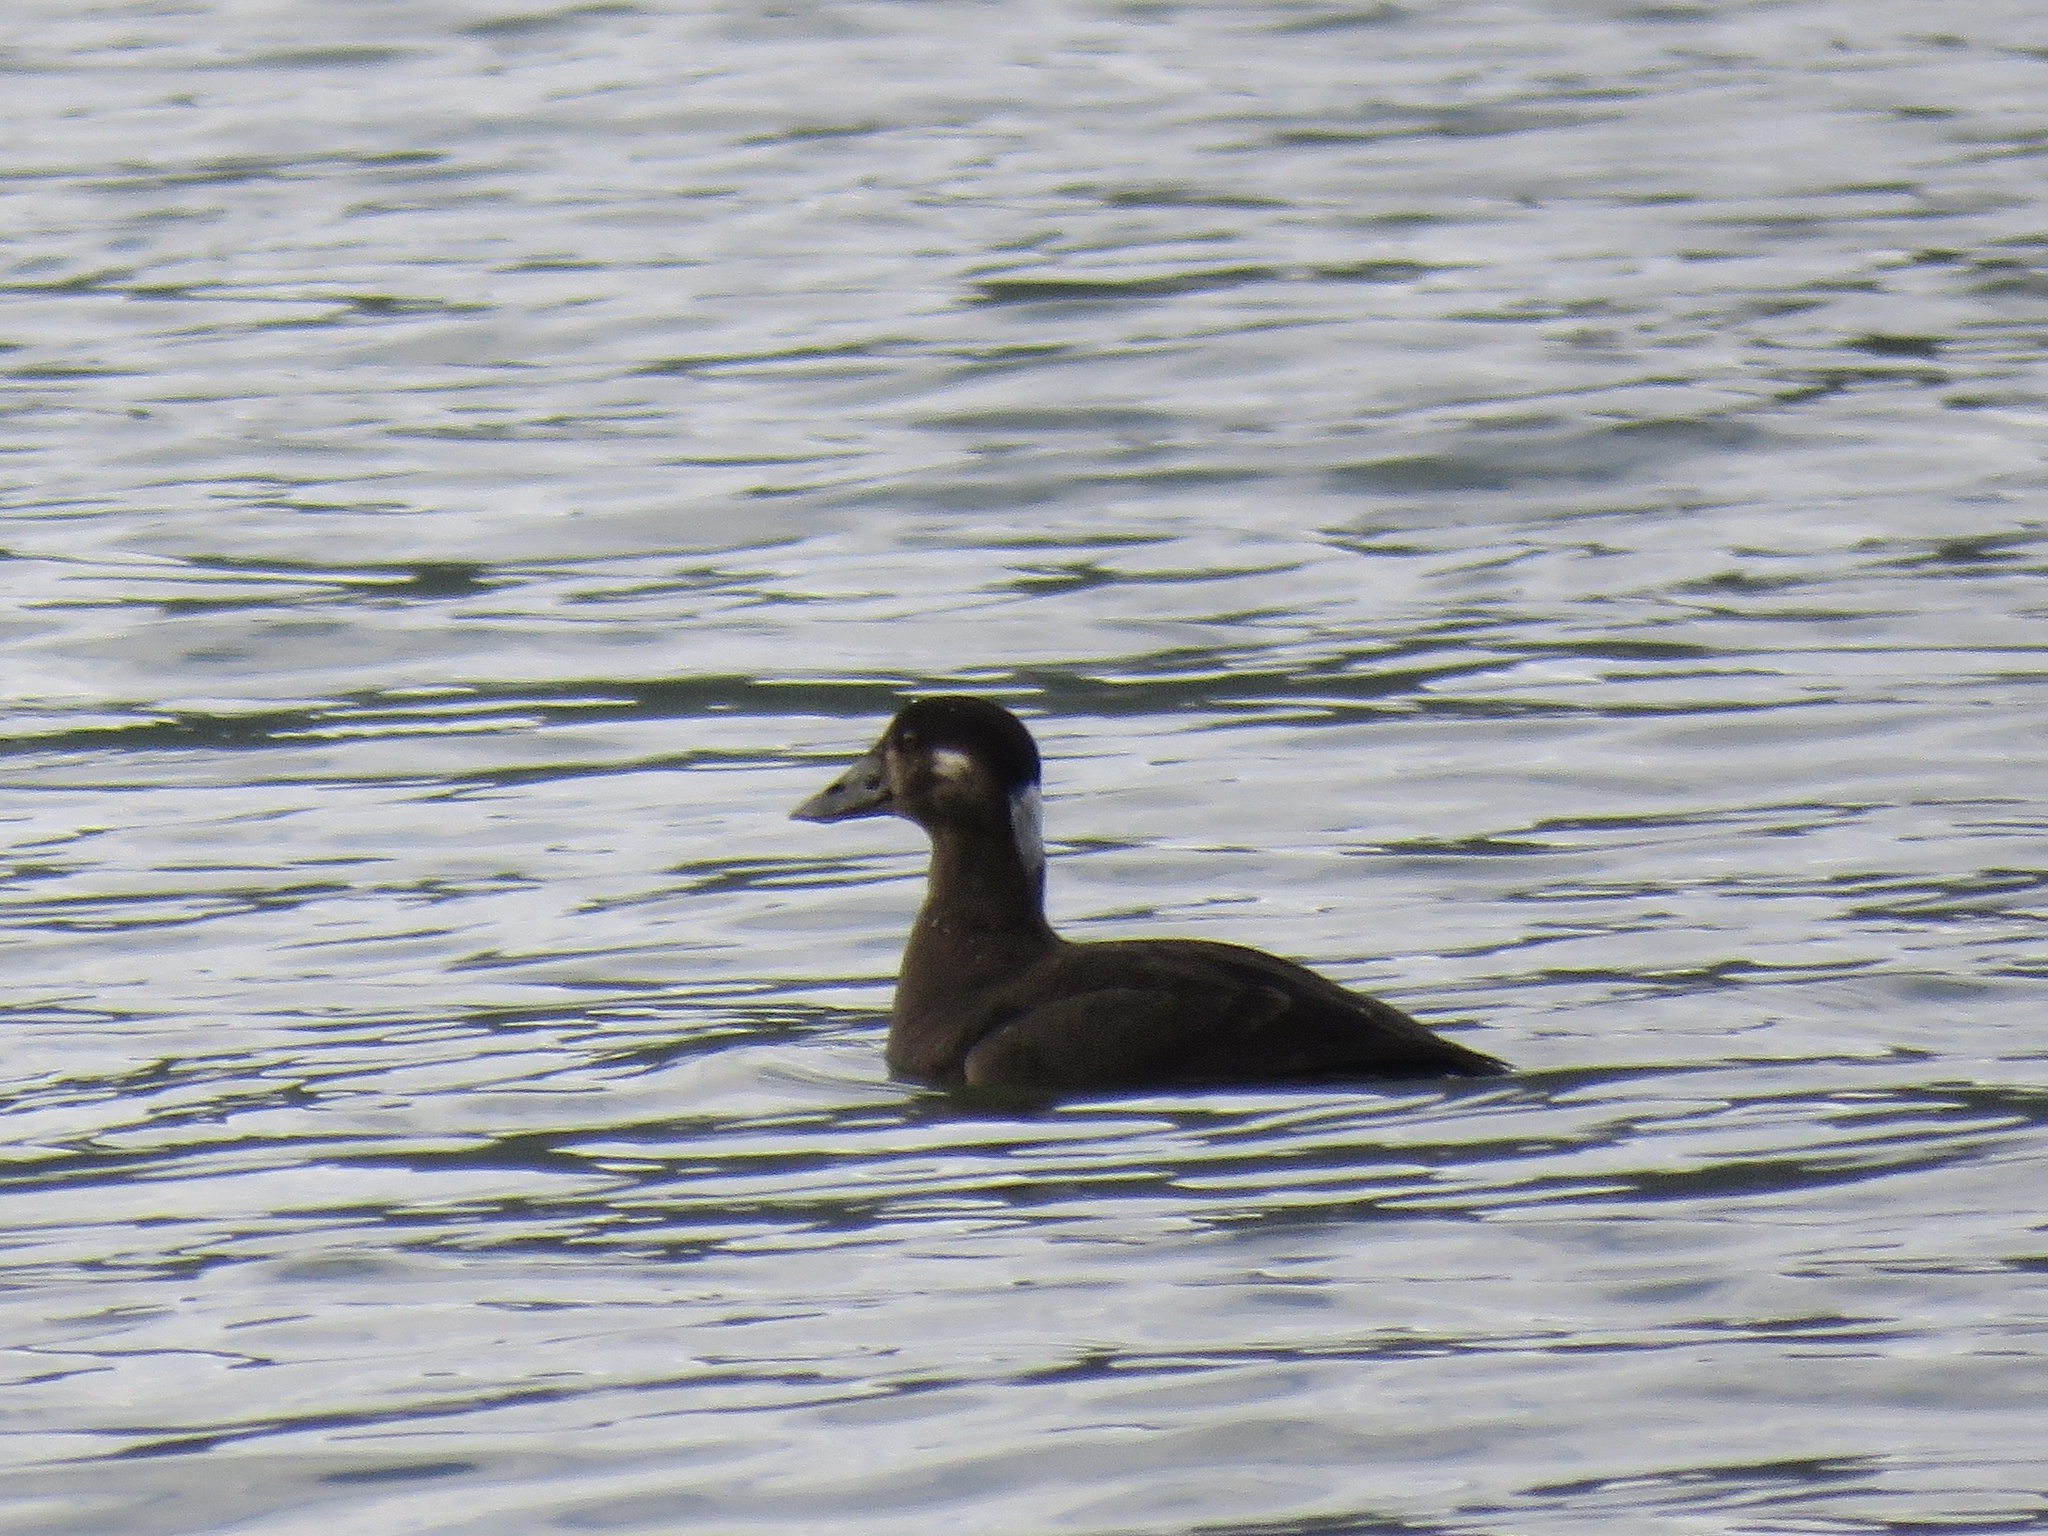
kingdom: Animalia
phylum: Chordata
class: Aves
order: Anseriformes
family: Anatidae
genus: Melanitta
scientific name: Melanitta perspicillata
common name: Surf scoter
